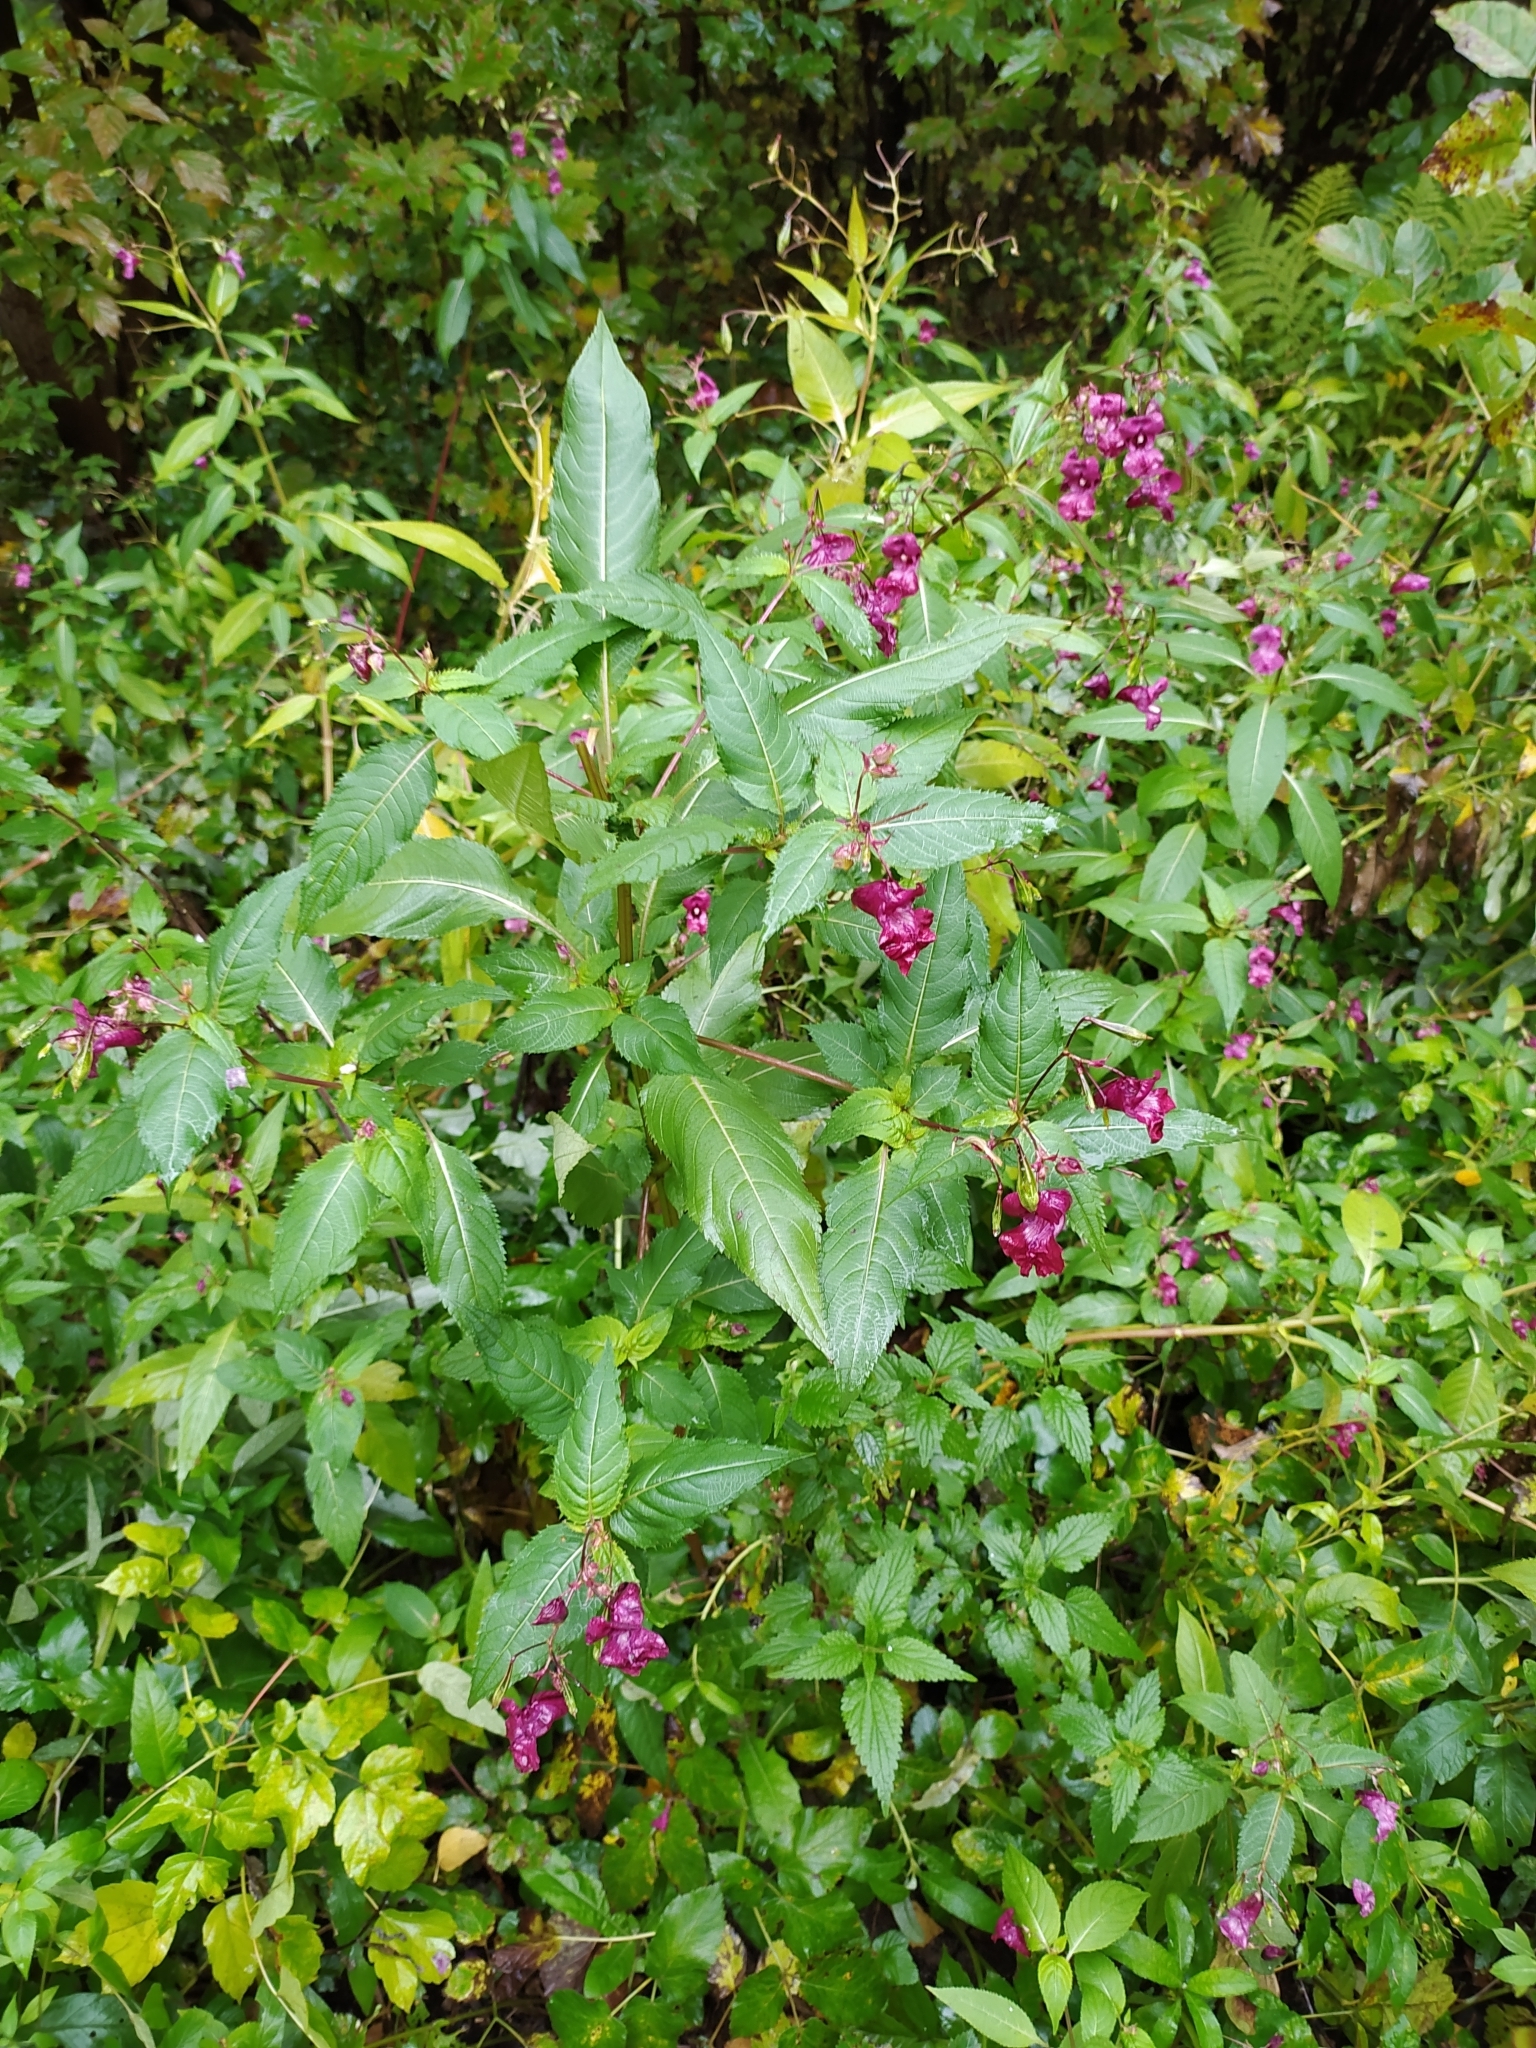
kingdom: Plantae
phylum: Tracheophyta
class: Magnoliopsida
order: Ericales
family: Balsaminaceae
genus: Impatiens
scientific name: Impatiens glandulifera
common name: Himalayan balsam
